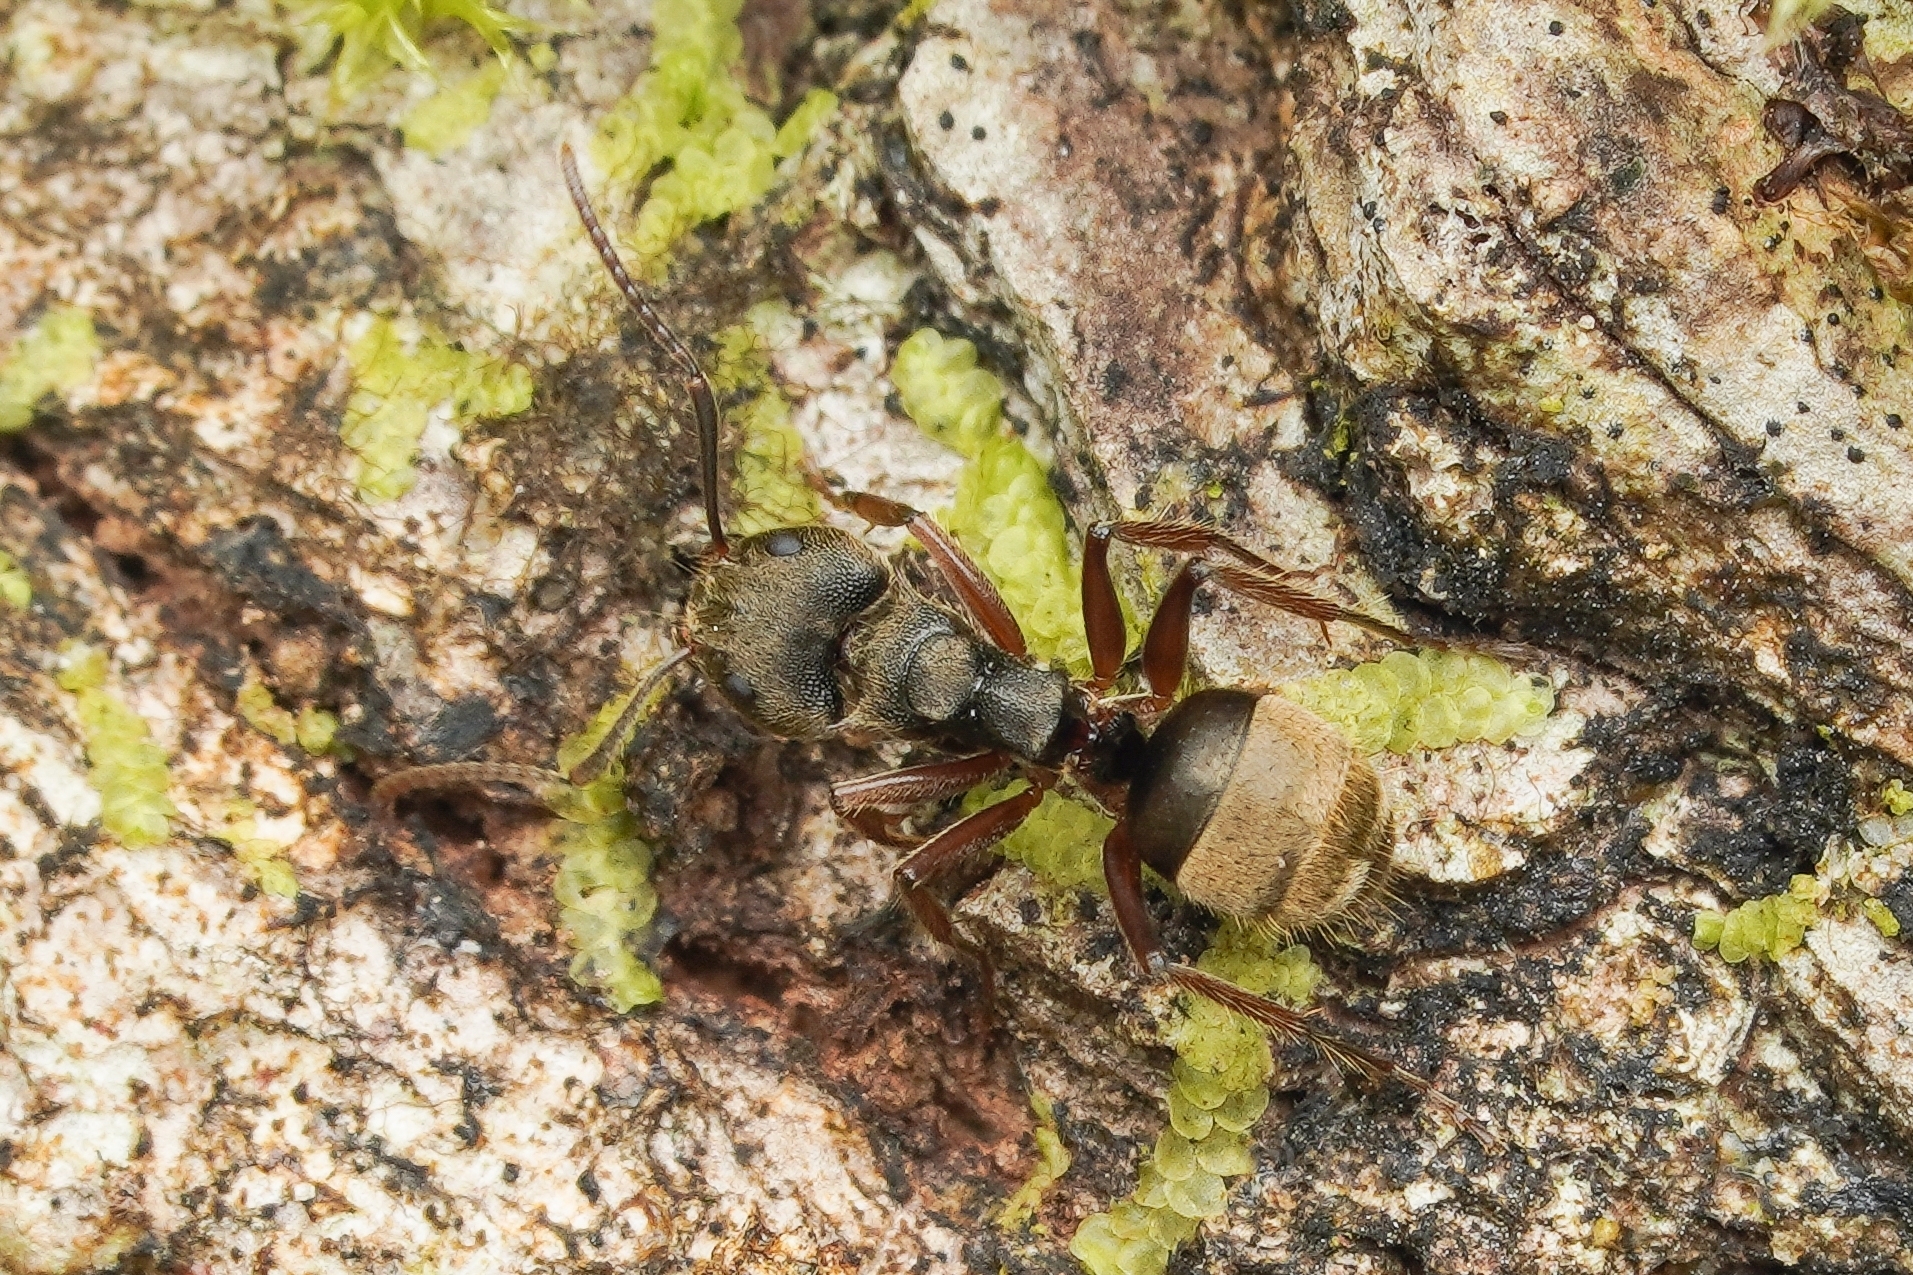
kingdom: Animalia
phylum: Arthropoda
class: Insecta
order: Hymenoptera
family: Formicidae
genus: Dolichoderus
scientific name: Dolichoderus bispinosus
